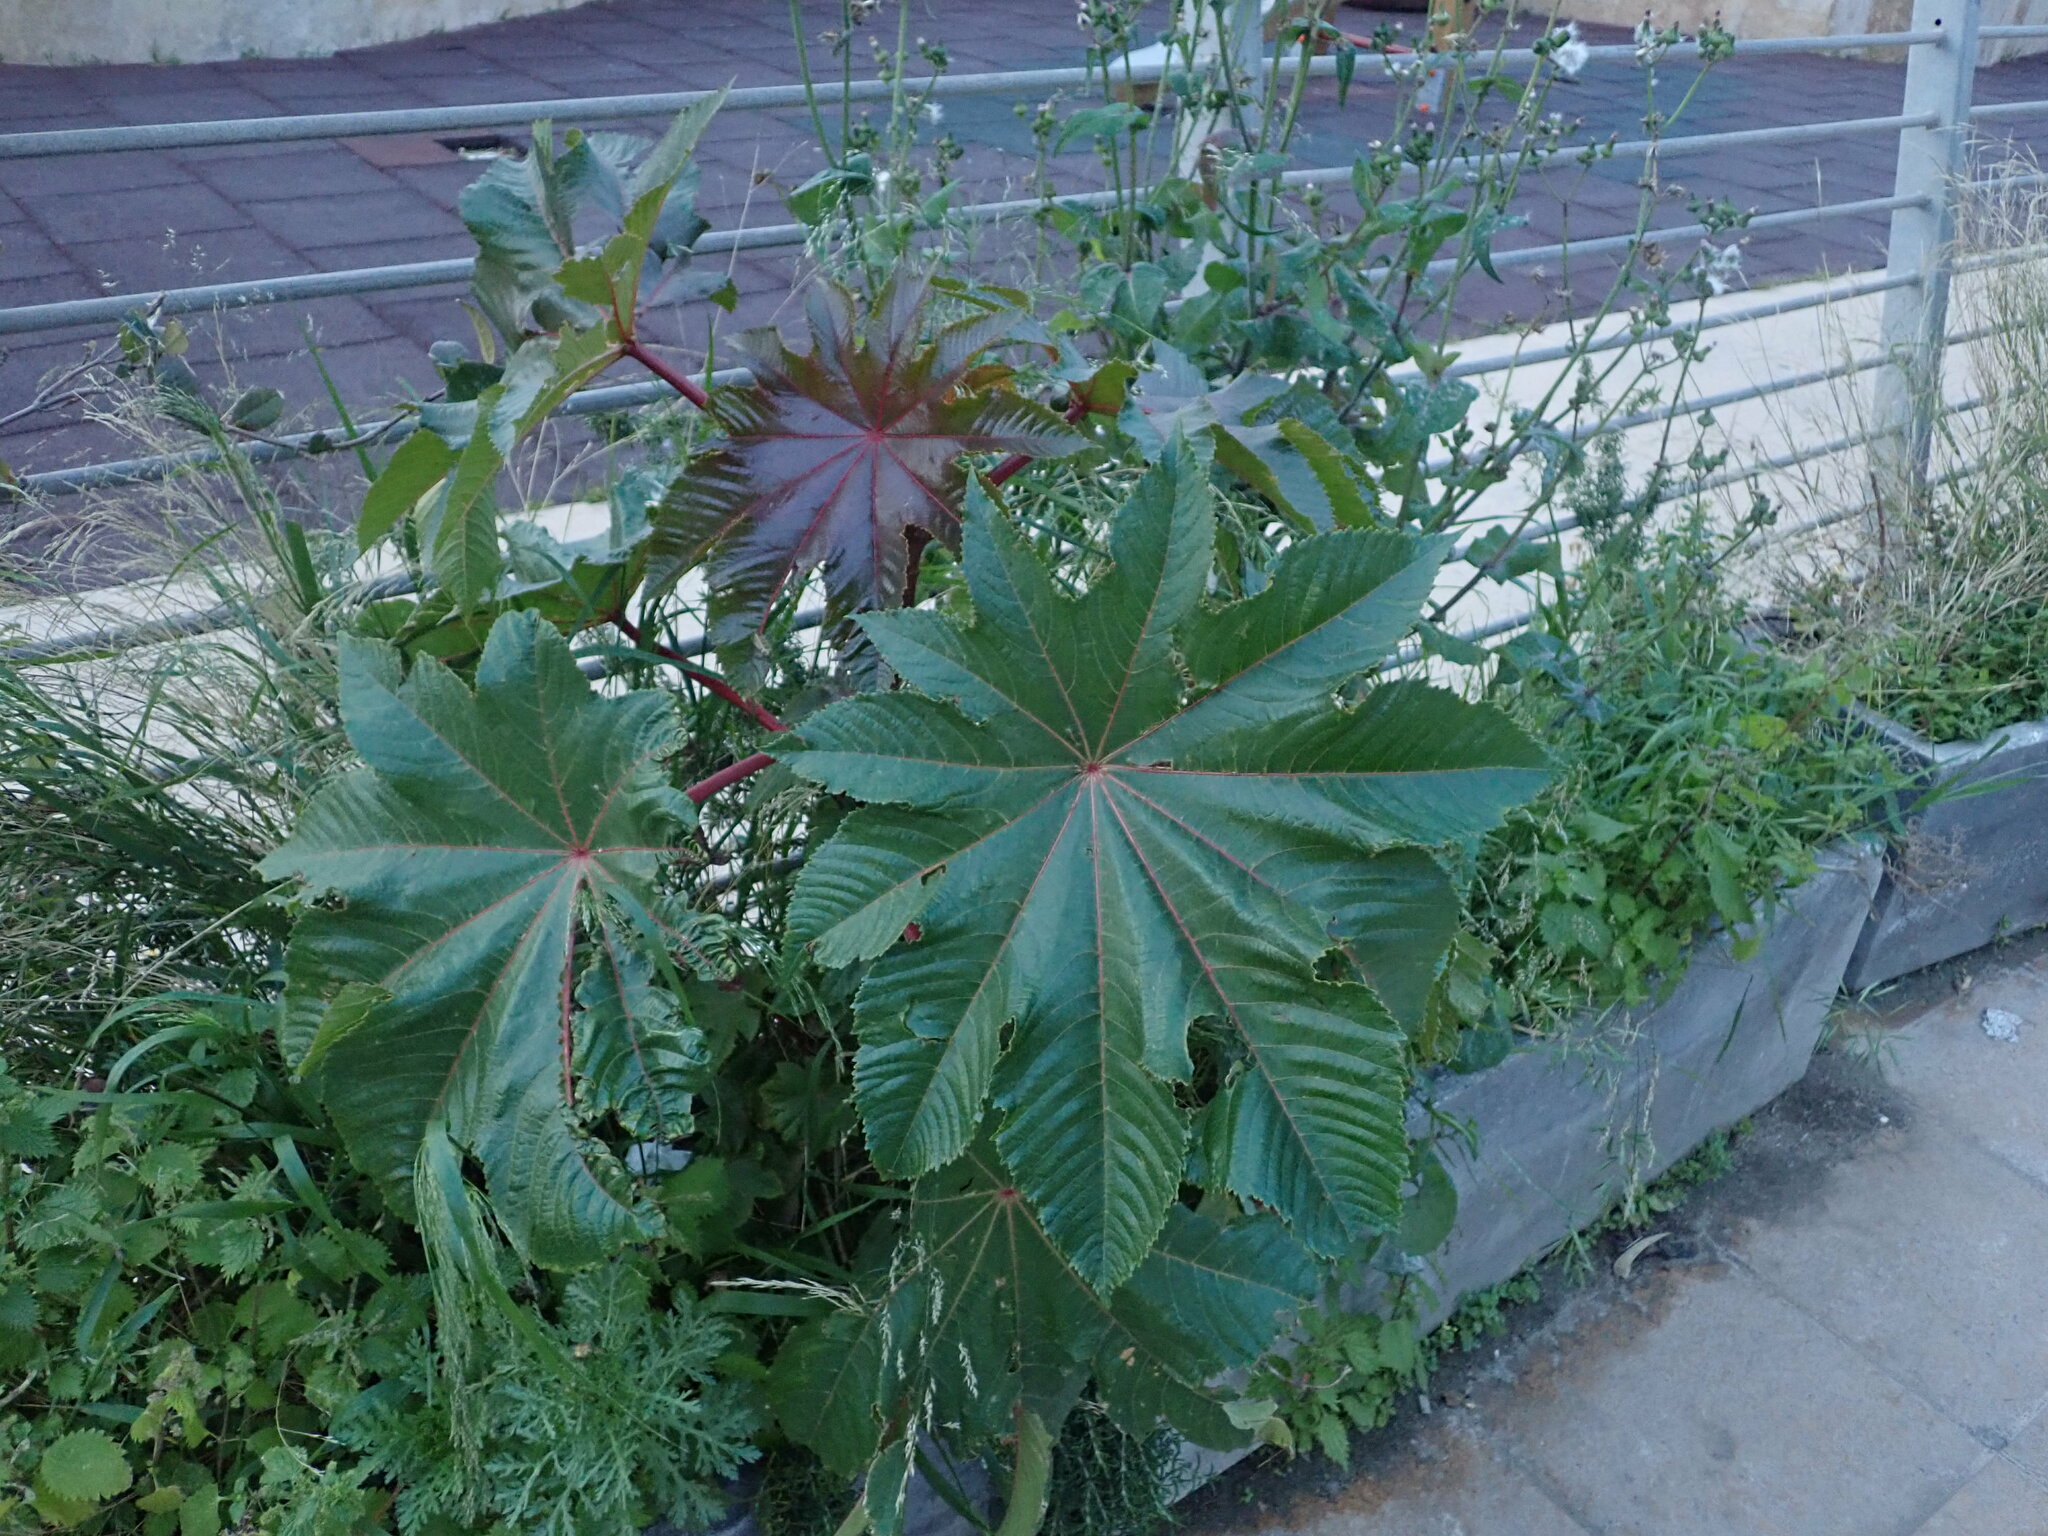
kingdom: Plantae
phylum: Tracheophyta
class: Magnoliopsida
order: Malpighiales
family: Euphorbiaceae
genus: Ricinus
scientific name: Ricinus communis
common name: Castor-oil-plant
